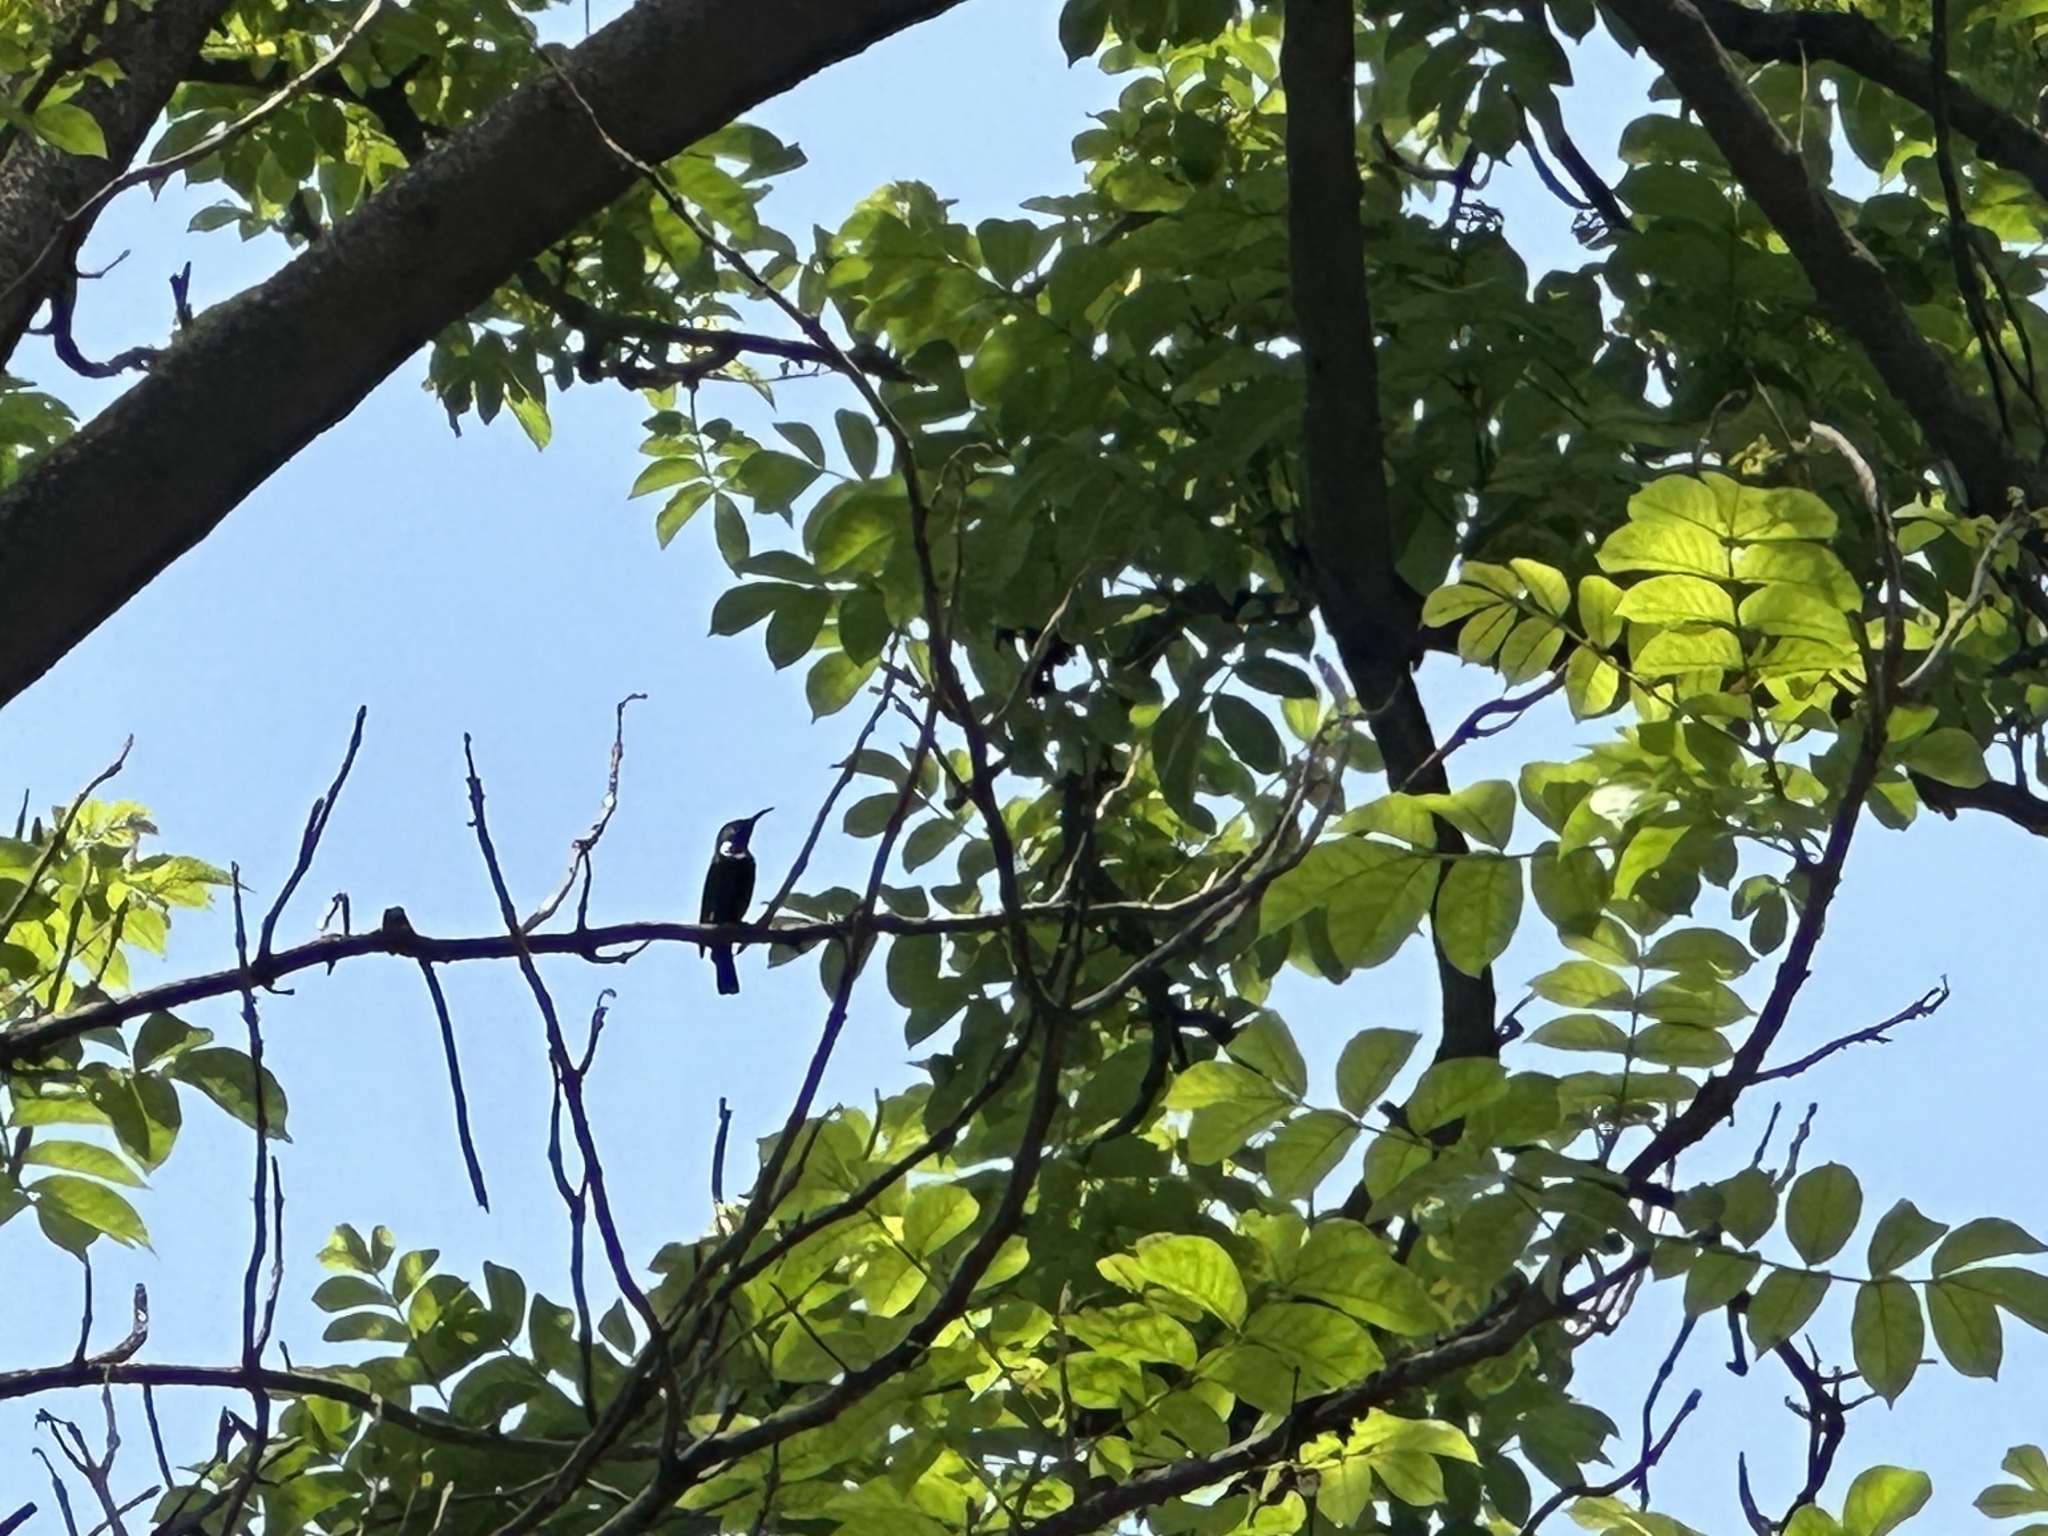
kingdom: Animalia
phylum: Chordata
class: Aves
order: Passeriformes
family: Nectariniidae
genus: Cinnyris
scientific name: Cinnyris asiaticus
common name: Purple sunbird
